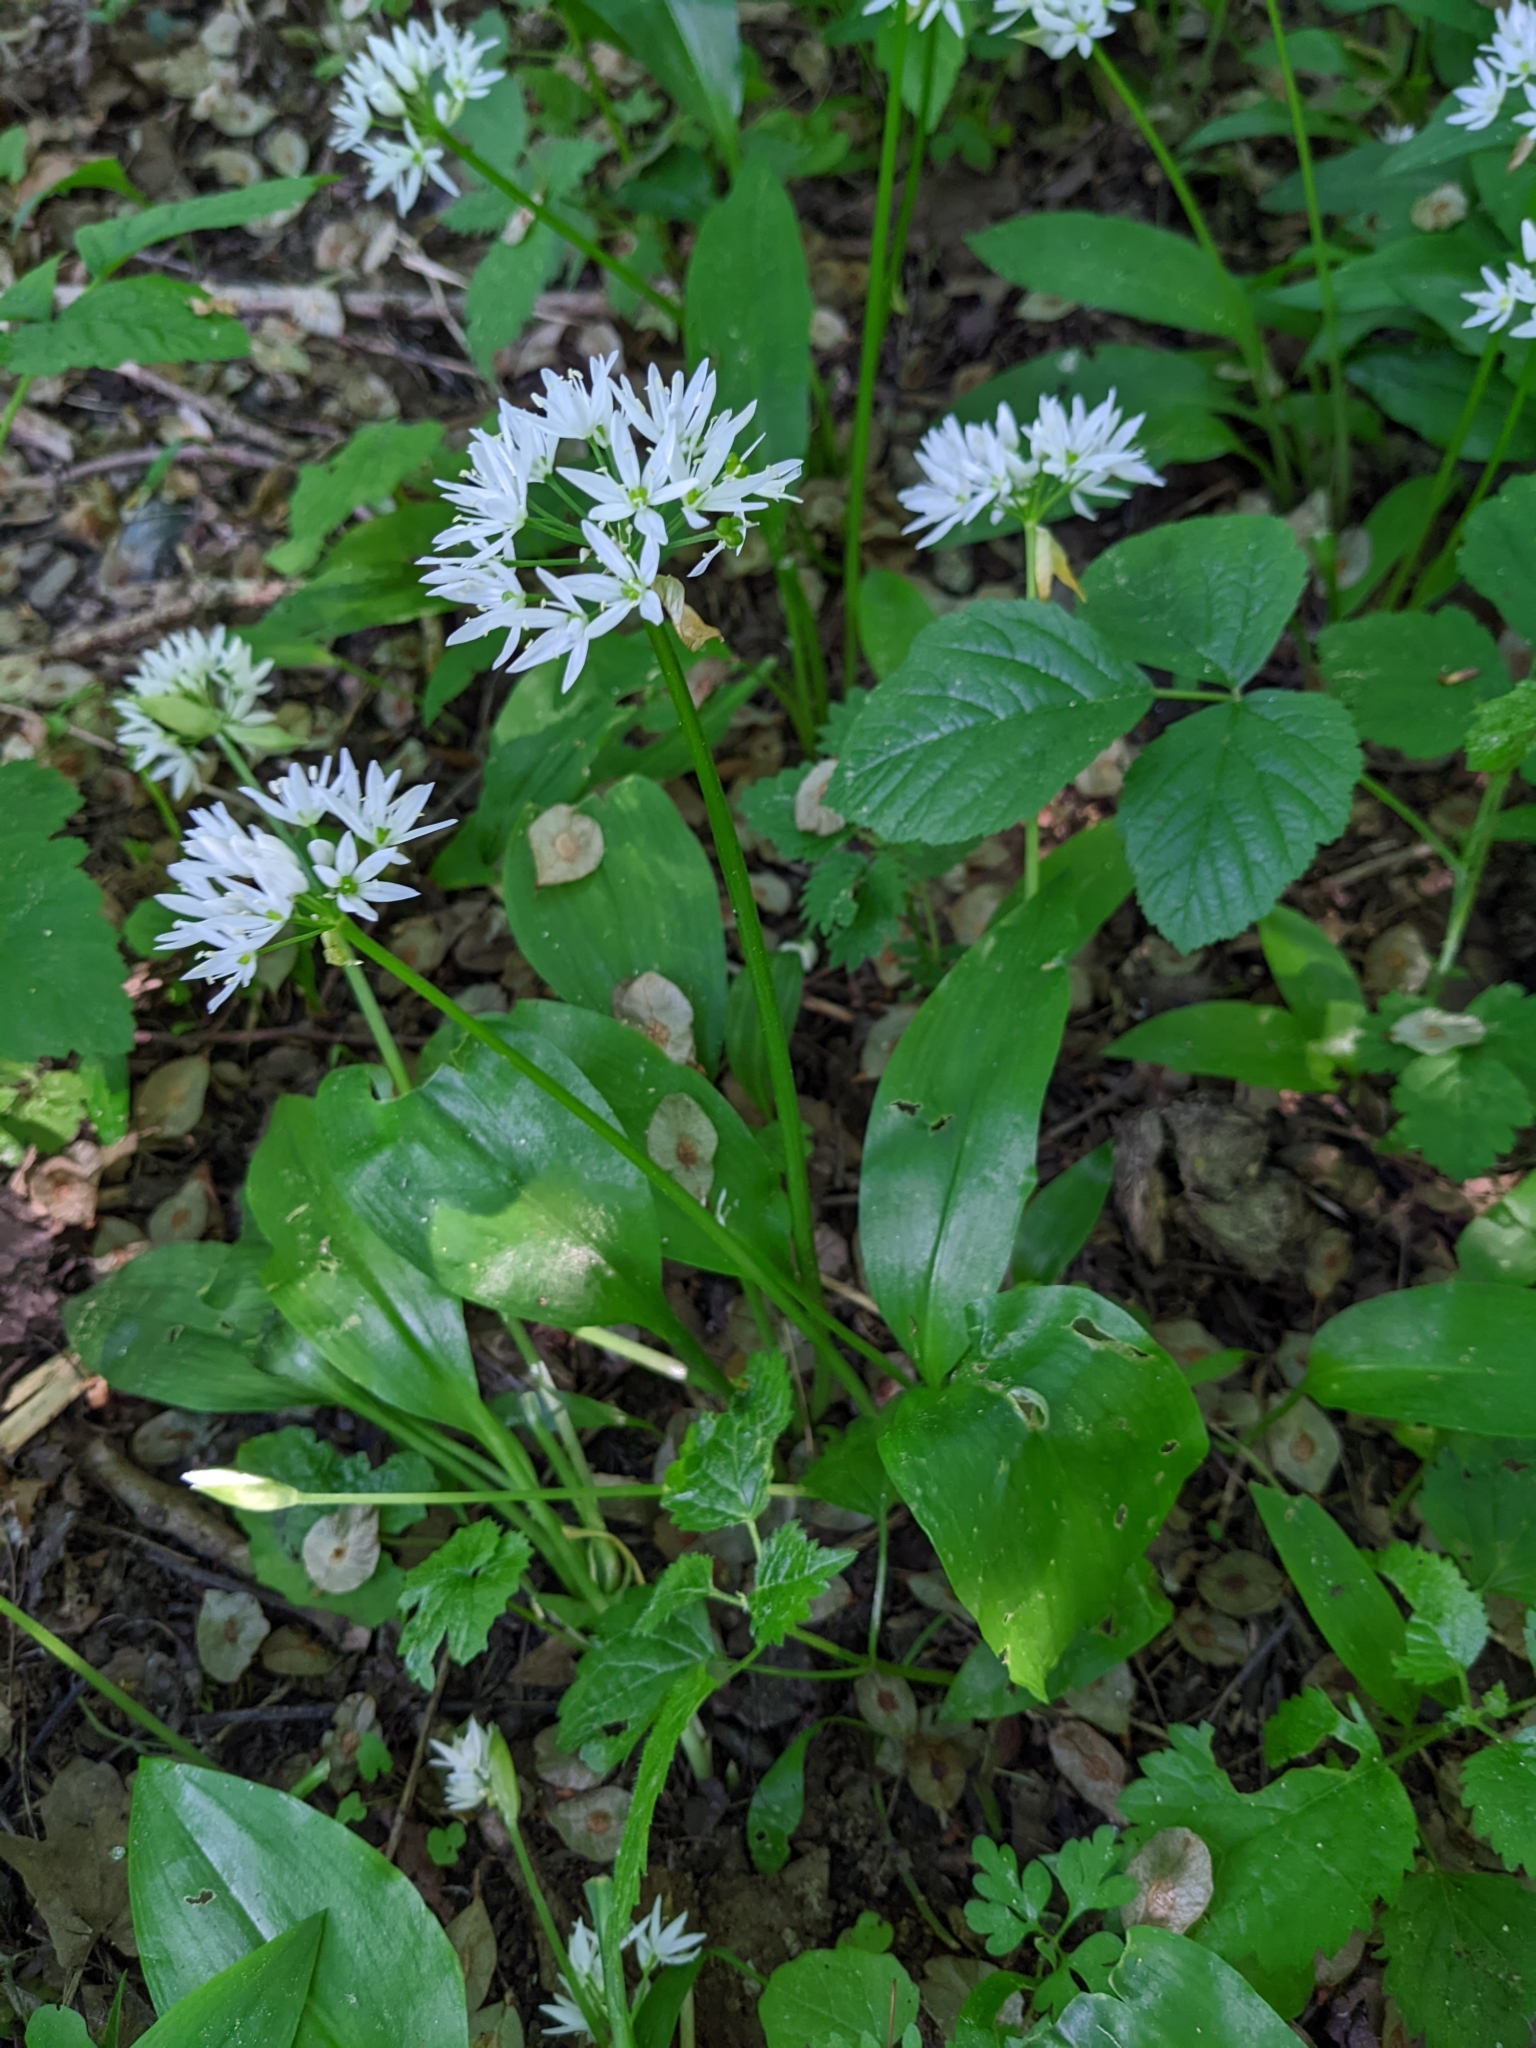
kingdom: Plantae
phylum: Tracheophyta
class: Liliopsida
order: Asparagales
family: Amaryllidaceae
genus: Allium
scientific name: Allium ursinum
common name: Ramsons
